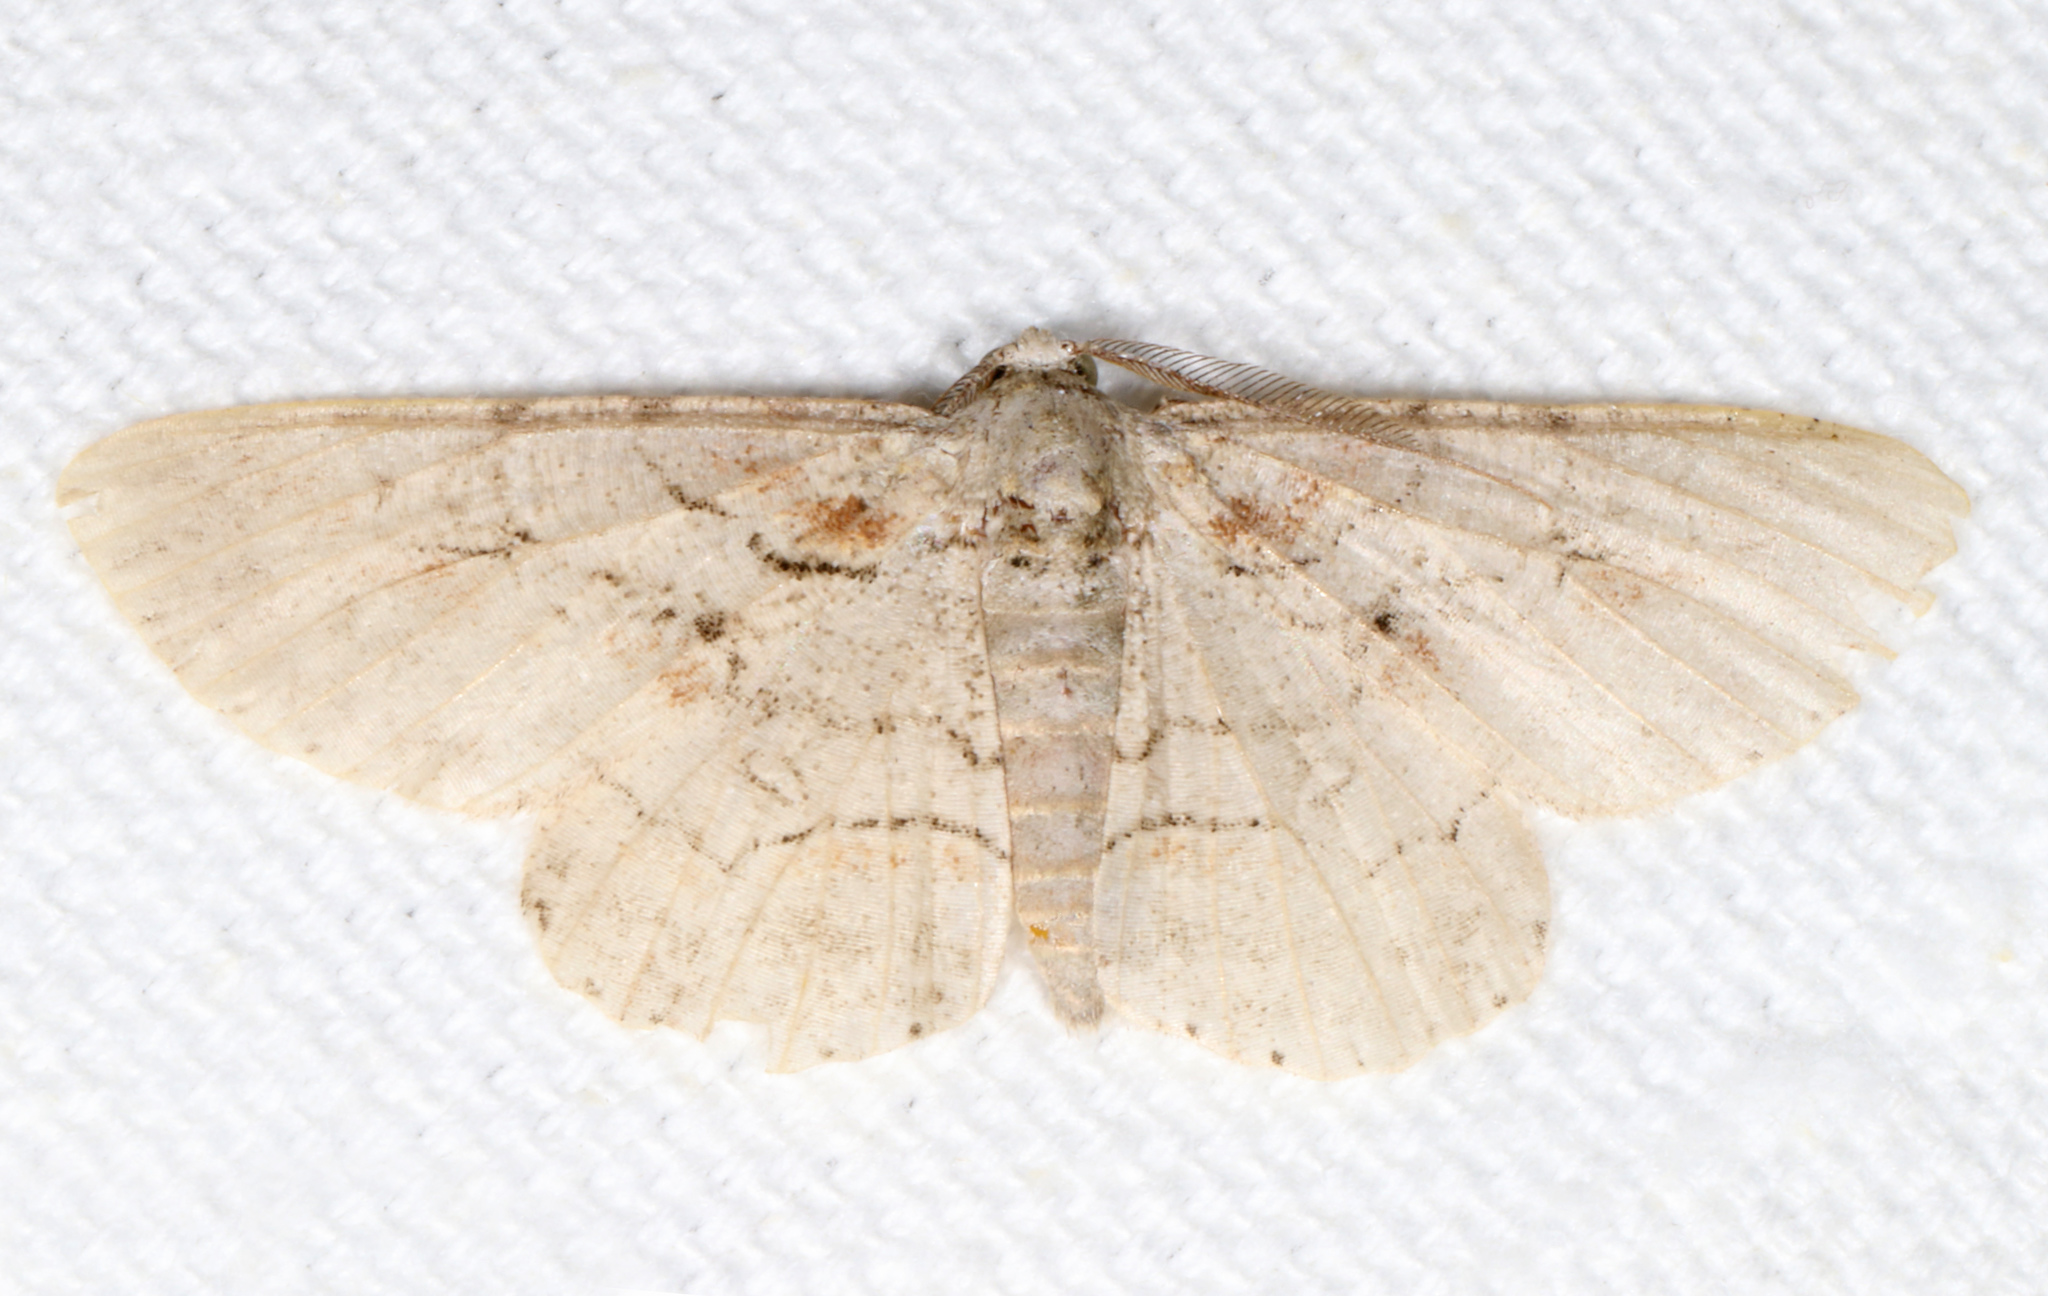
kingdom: Animalia
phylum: Arthropoda
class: Insecta
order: Lepidoptera
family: Geometridae
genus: Iridopsis
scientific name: Iridopsis defectaria
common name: Brown-shaded gray
